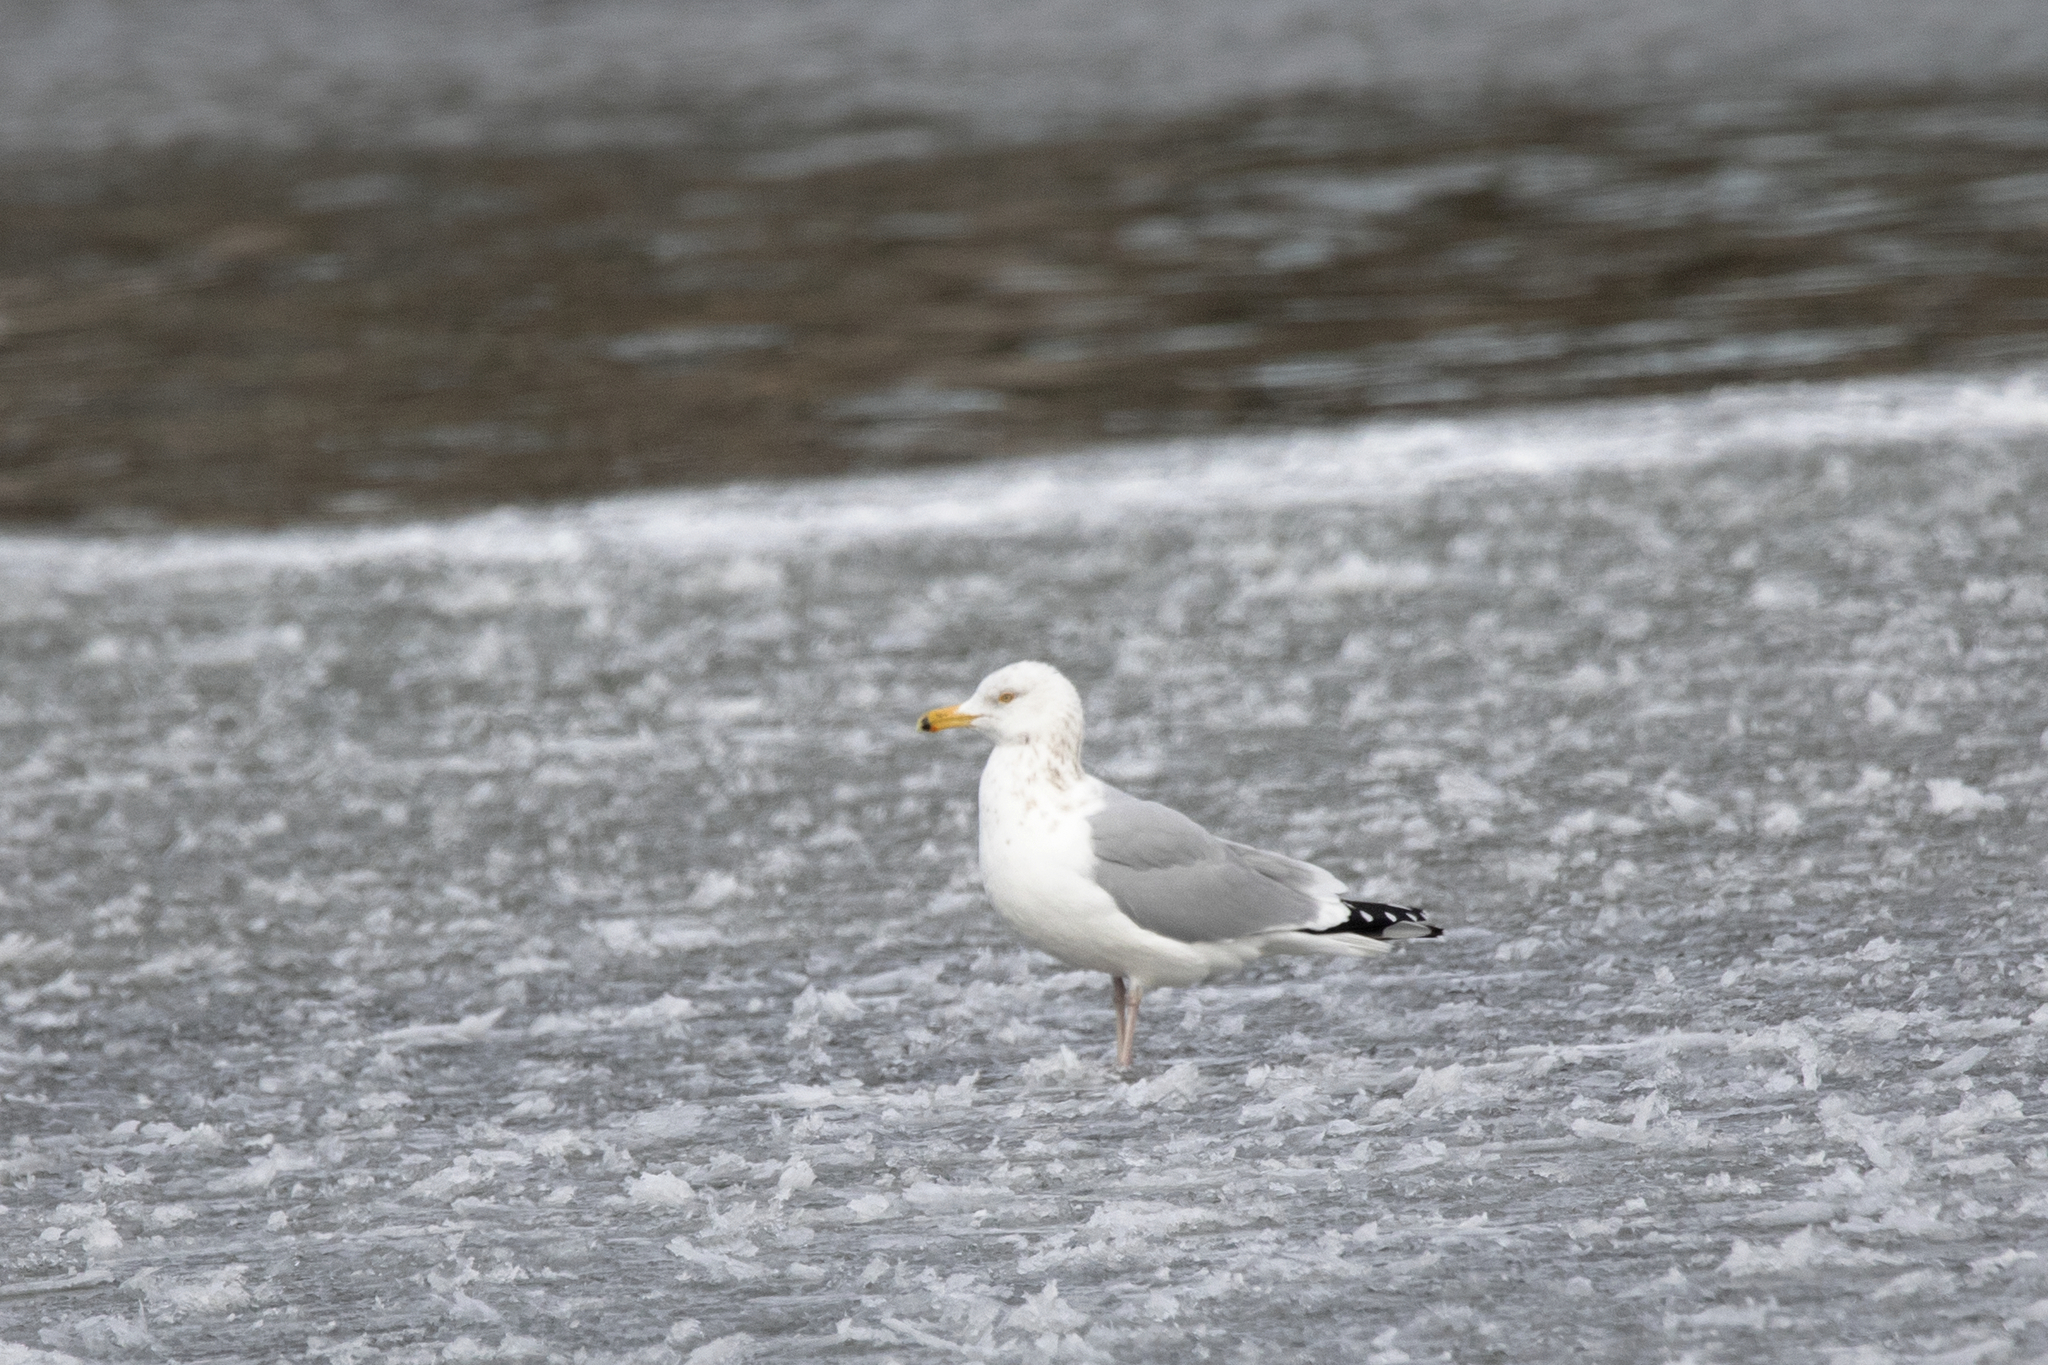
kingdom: Animalia
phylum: Chordata
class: Aves
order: Charadriiformes
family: Laridae
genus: Larus
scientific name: Larus argentatus
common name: Herring gull
